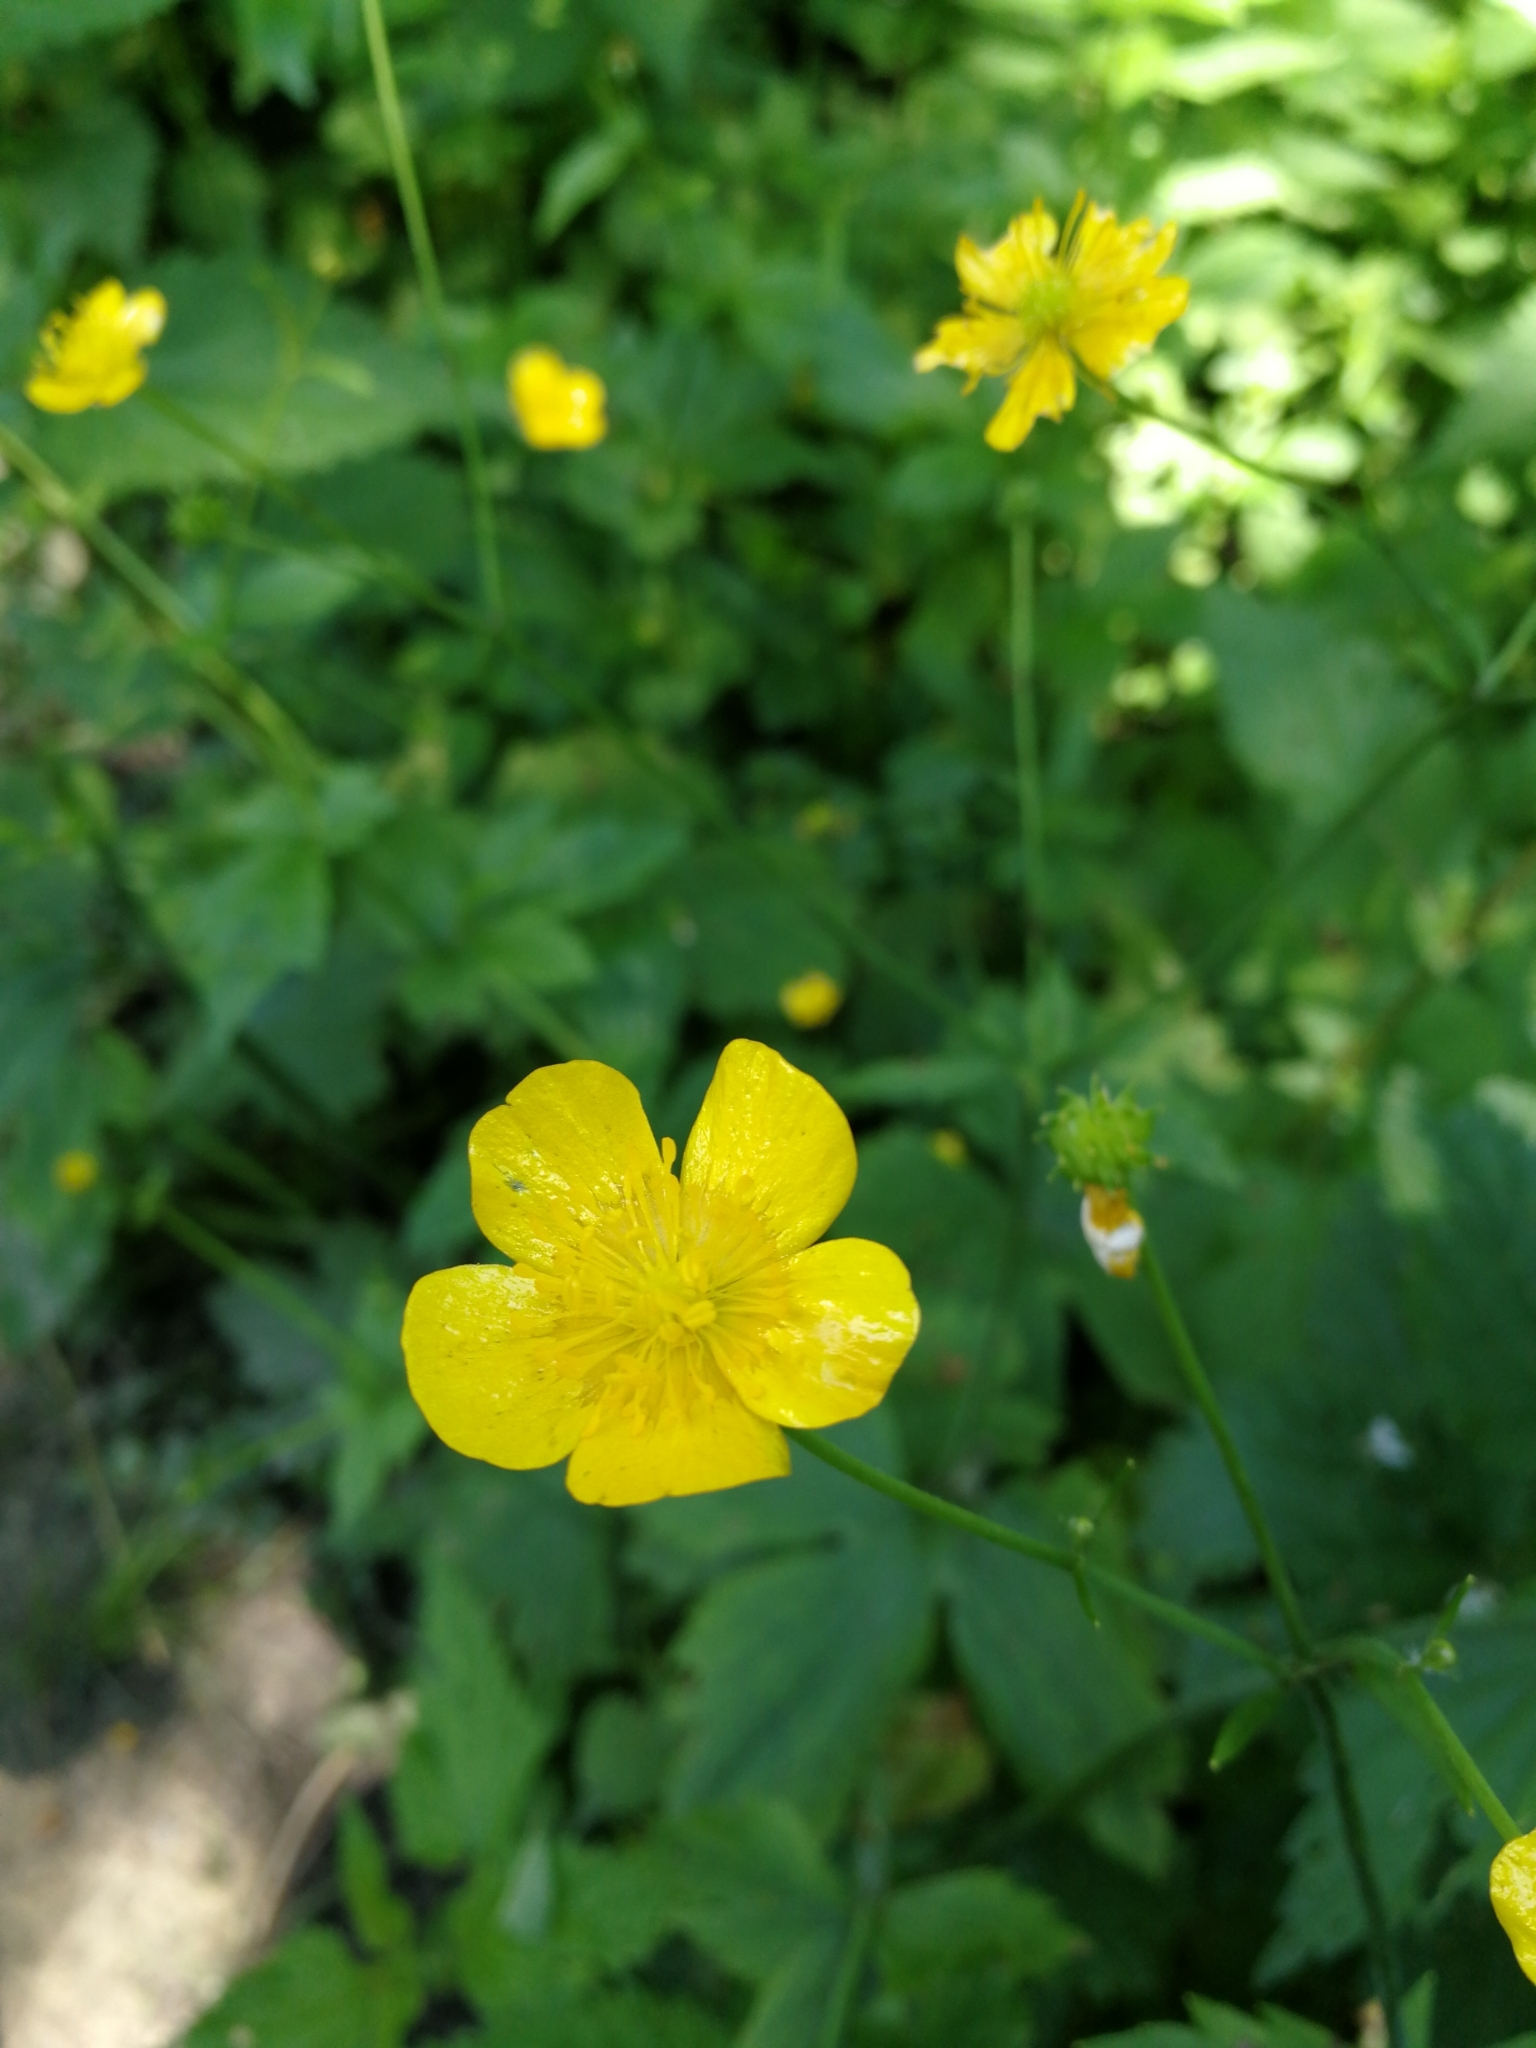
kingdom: Plantae
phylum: Tracheophyta
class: Magnoliopsida
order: Ranunculales
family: Ranunculaceae
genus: Ranunculus
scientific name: Ranunculus lanuginosus
